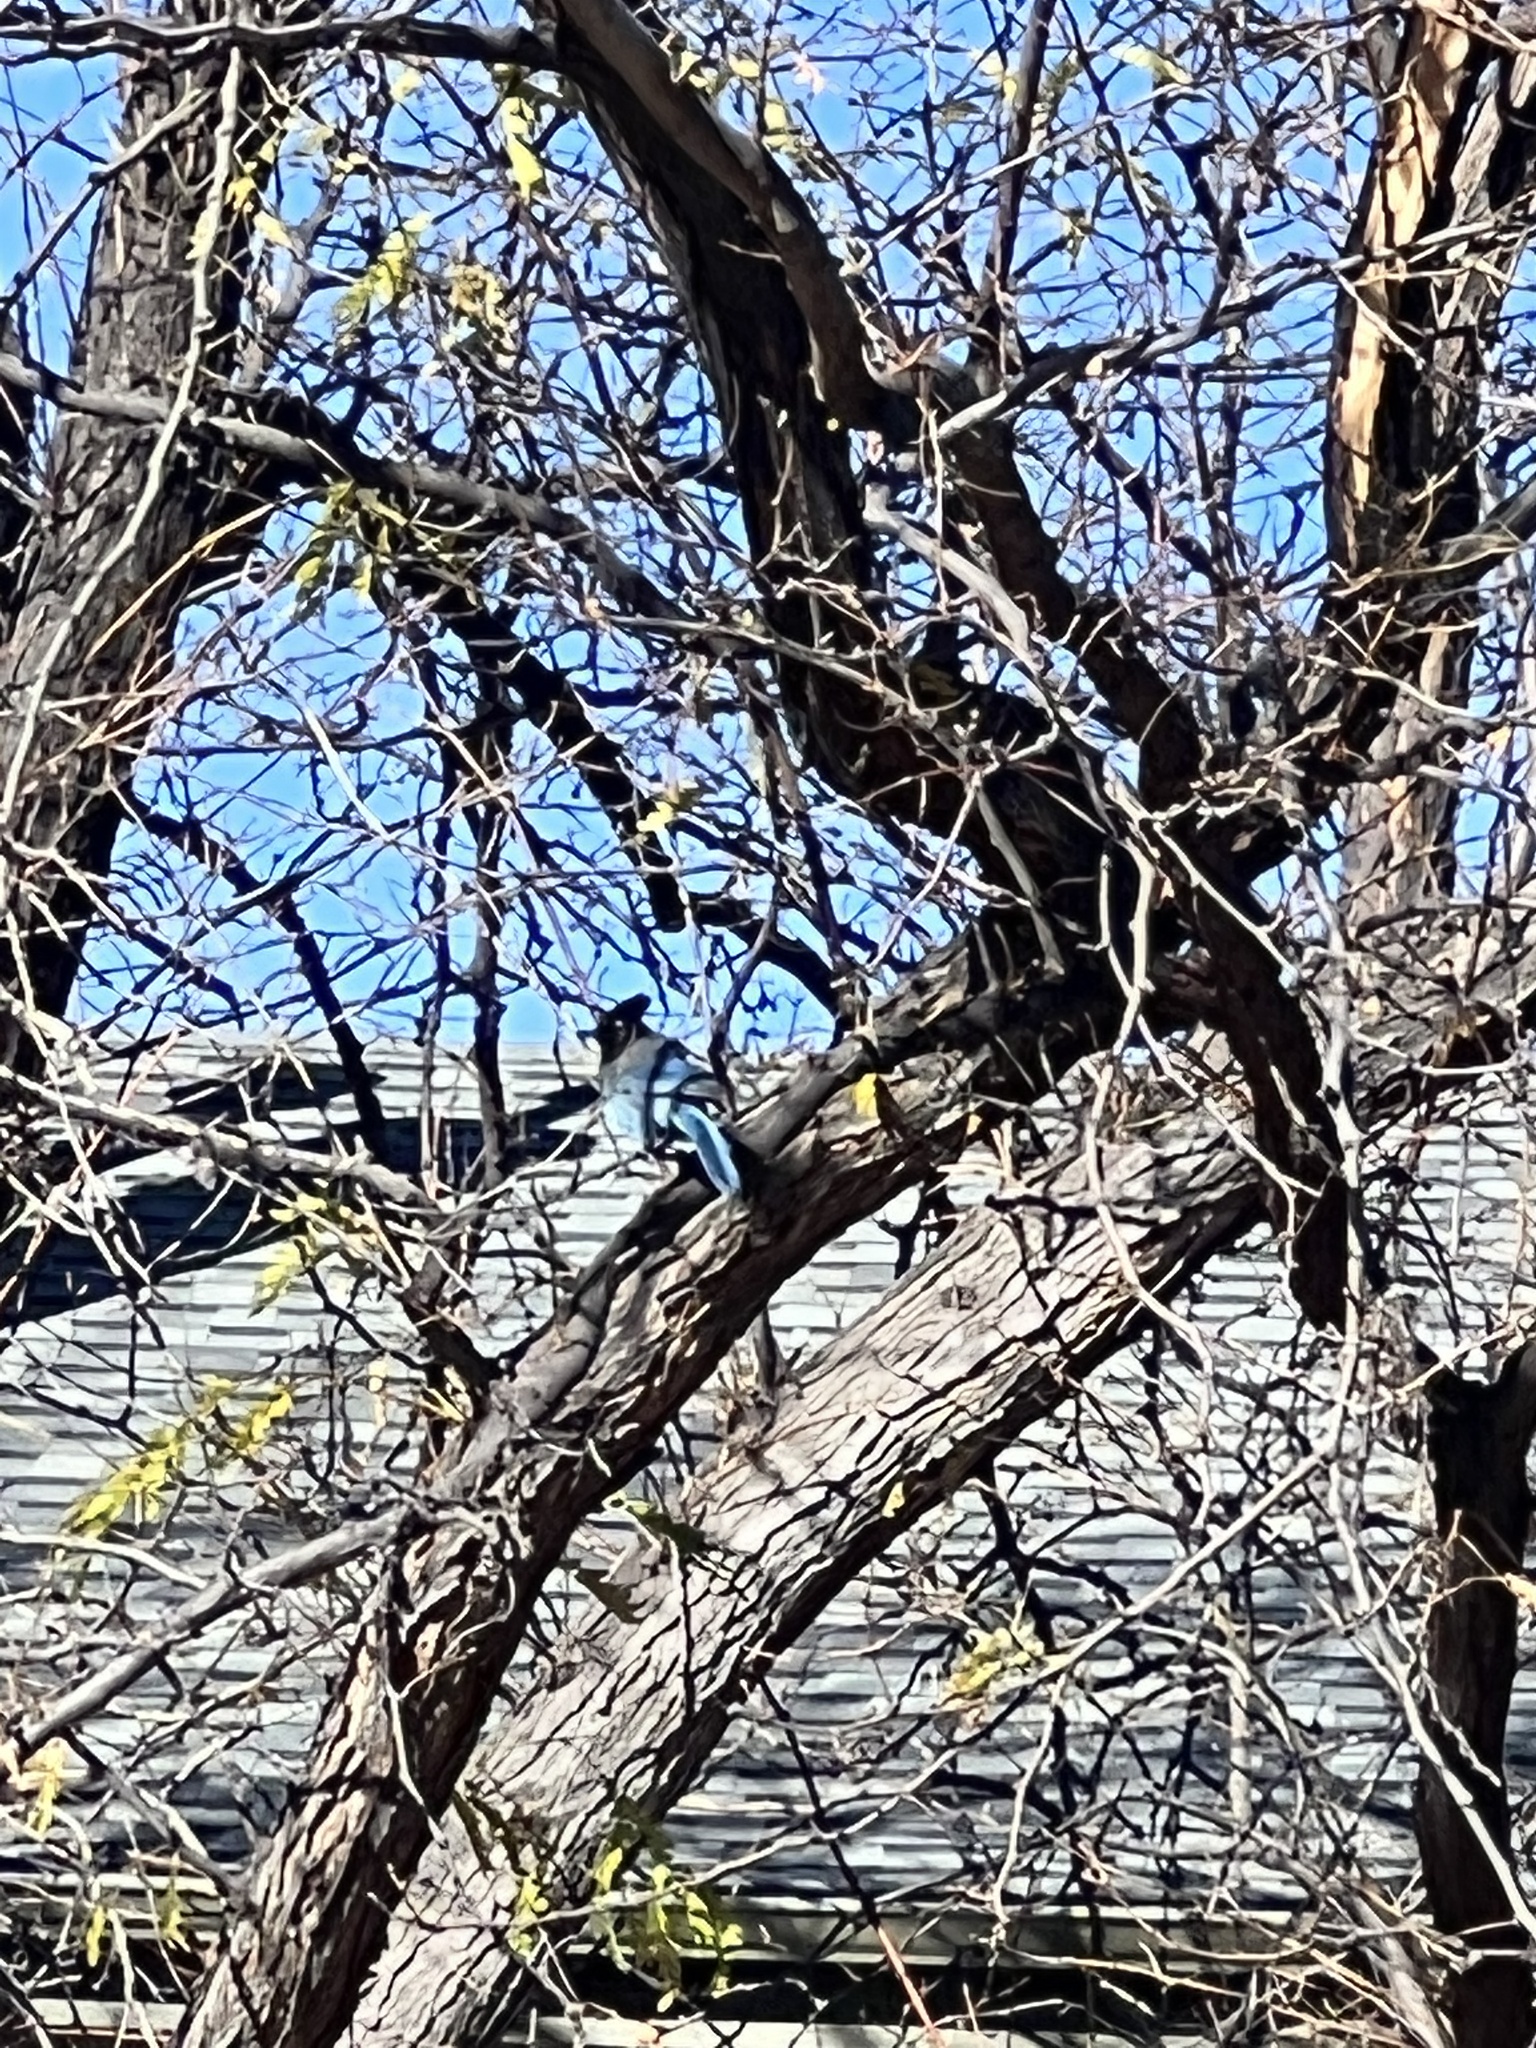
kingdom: Animalia
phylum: Chordata
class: Aves
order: Passeriformes
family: Corvidae
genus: Cyanocitta
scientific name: Cyanocitta stelleri
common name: Steller's jay
